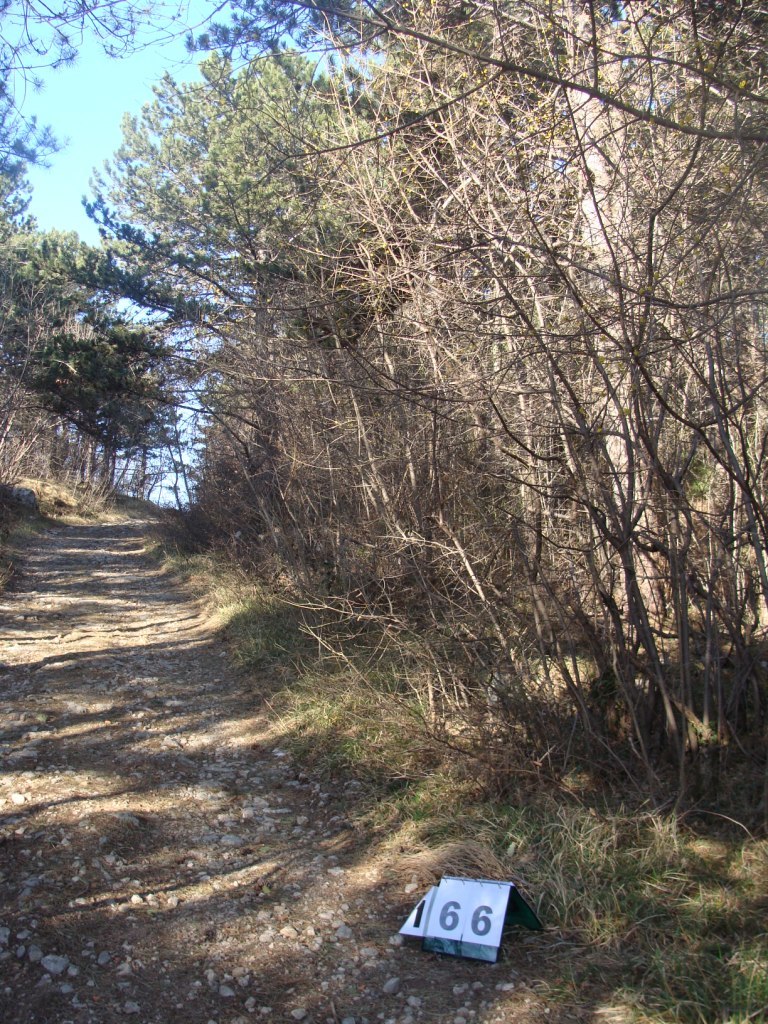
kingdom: Plantae
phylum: Tracheophyta
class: Magnoliopsida
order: Cornales
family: Cornaceae
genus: Cornus
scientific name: Cornus mas
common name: Cornelian-cherry
